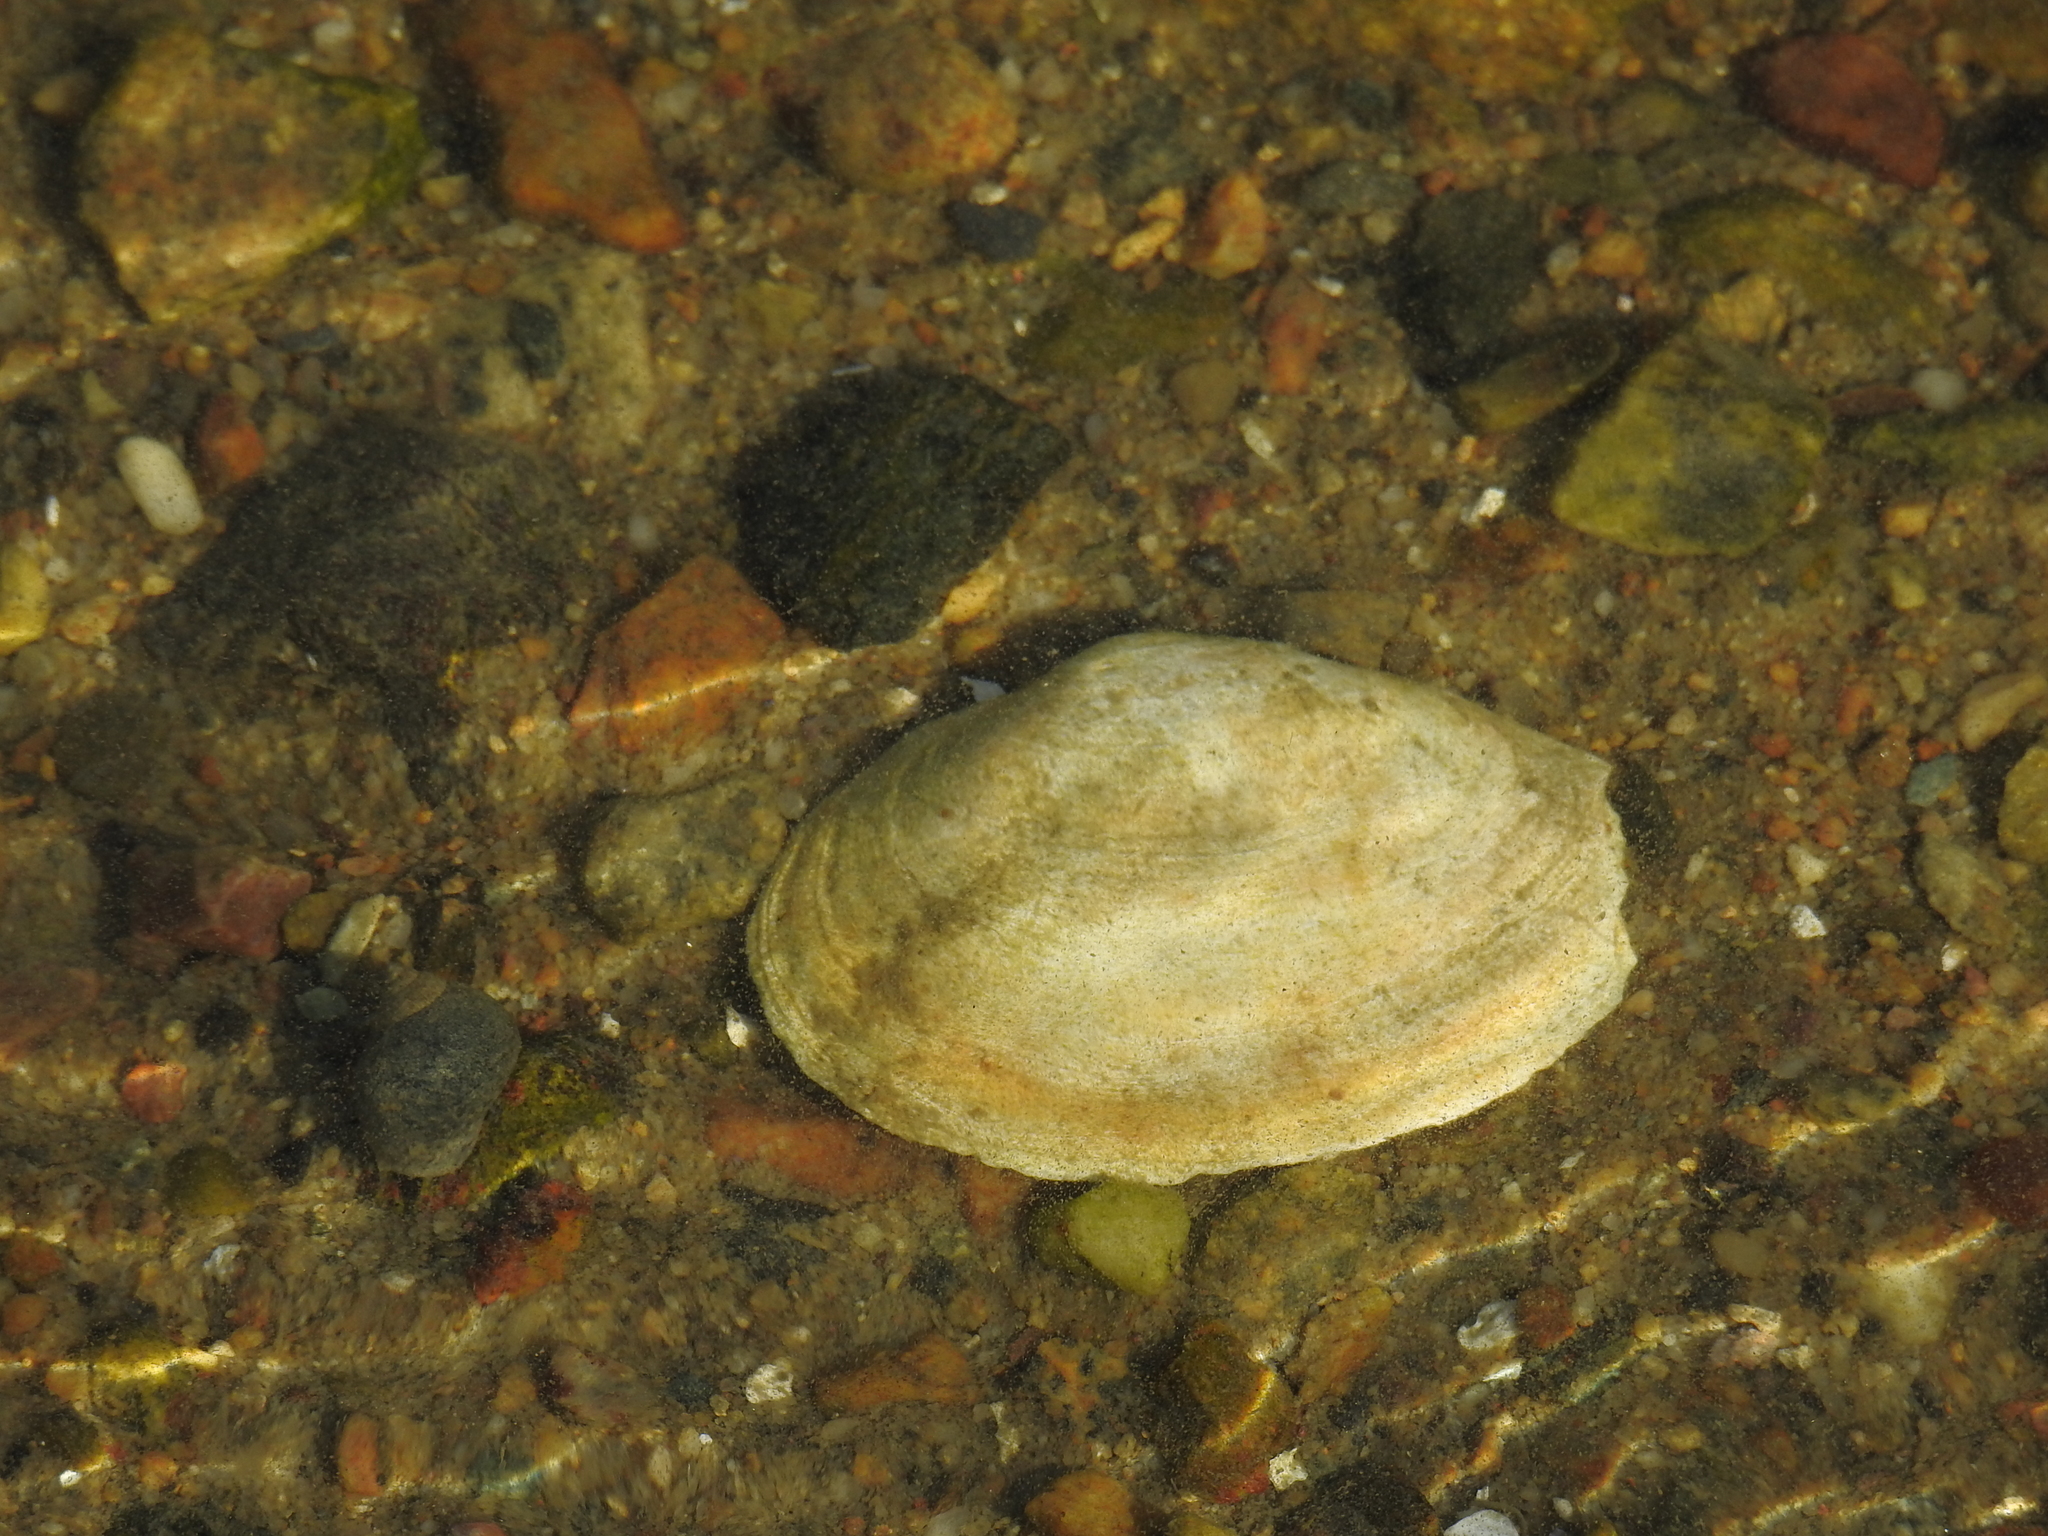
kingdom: Animalia
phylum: Mollusca
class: Bivalvia
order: Myida
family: Myidae
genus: Mya
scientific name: Mya arenaria
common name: Soft-shelled clam
